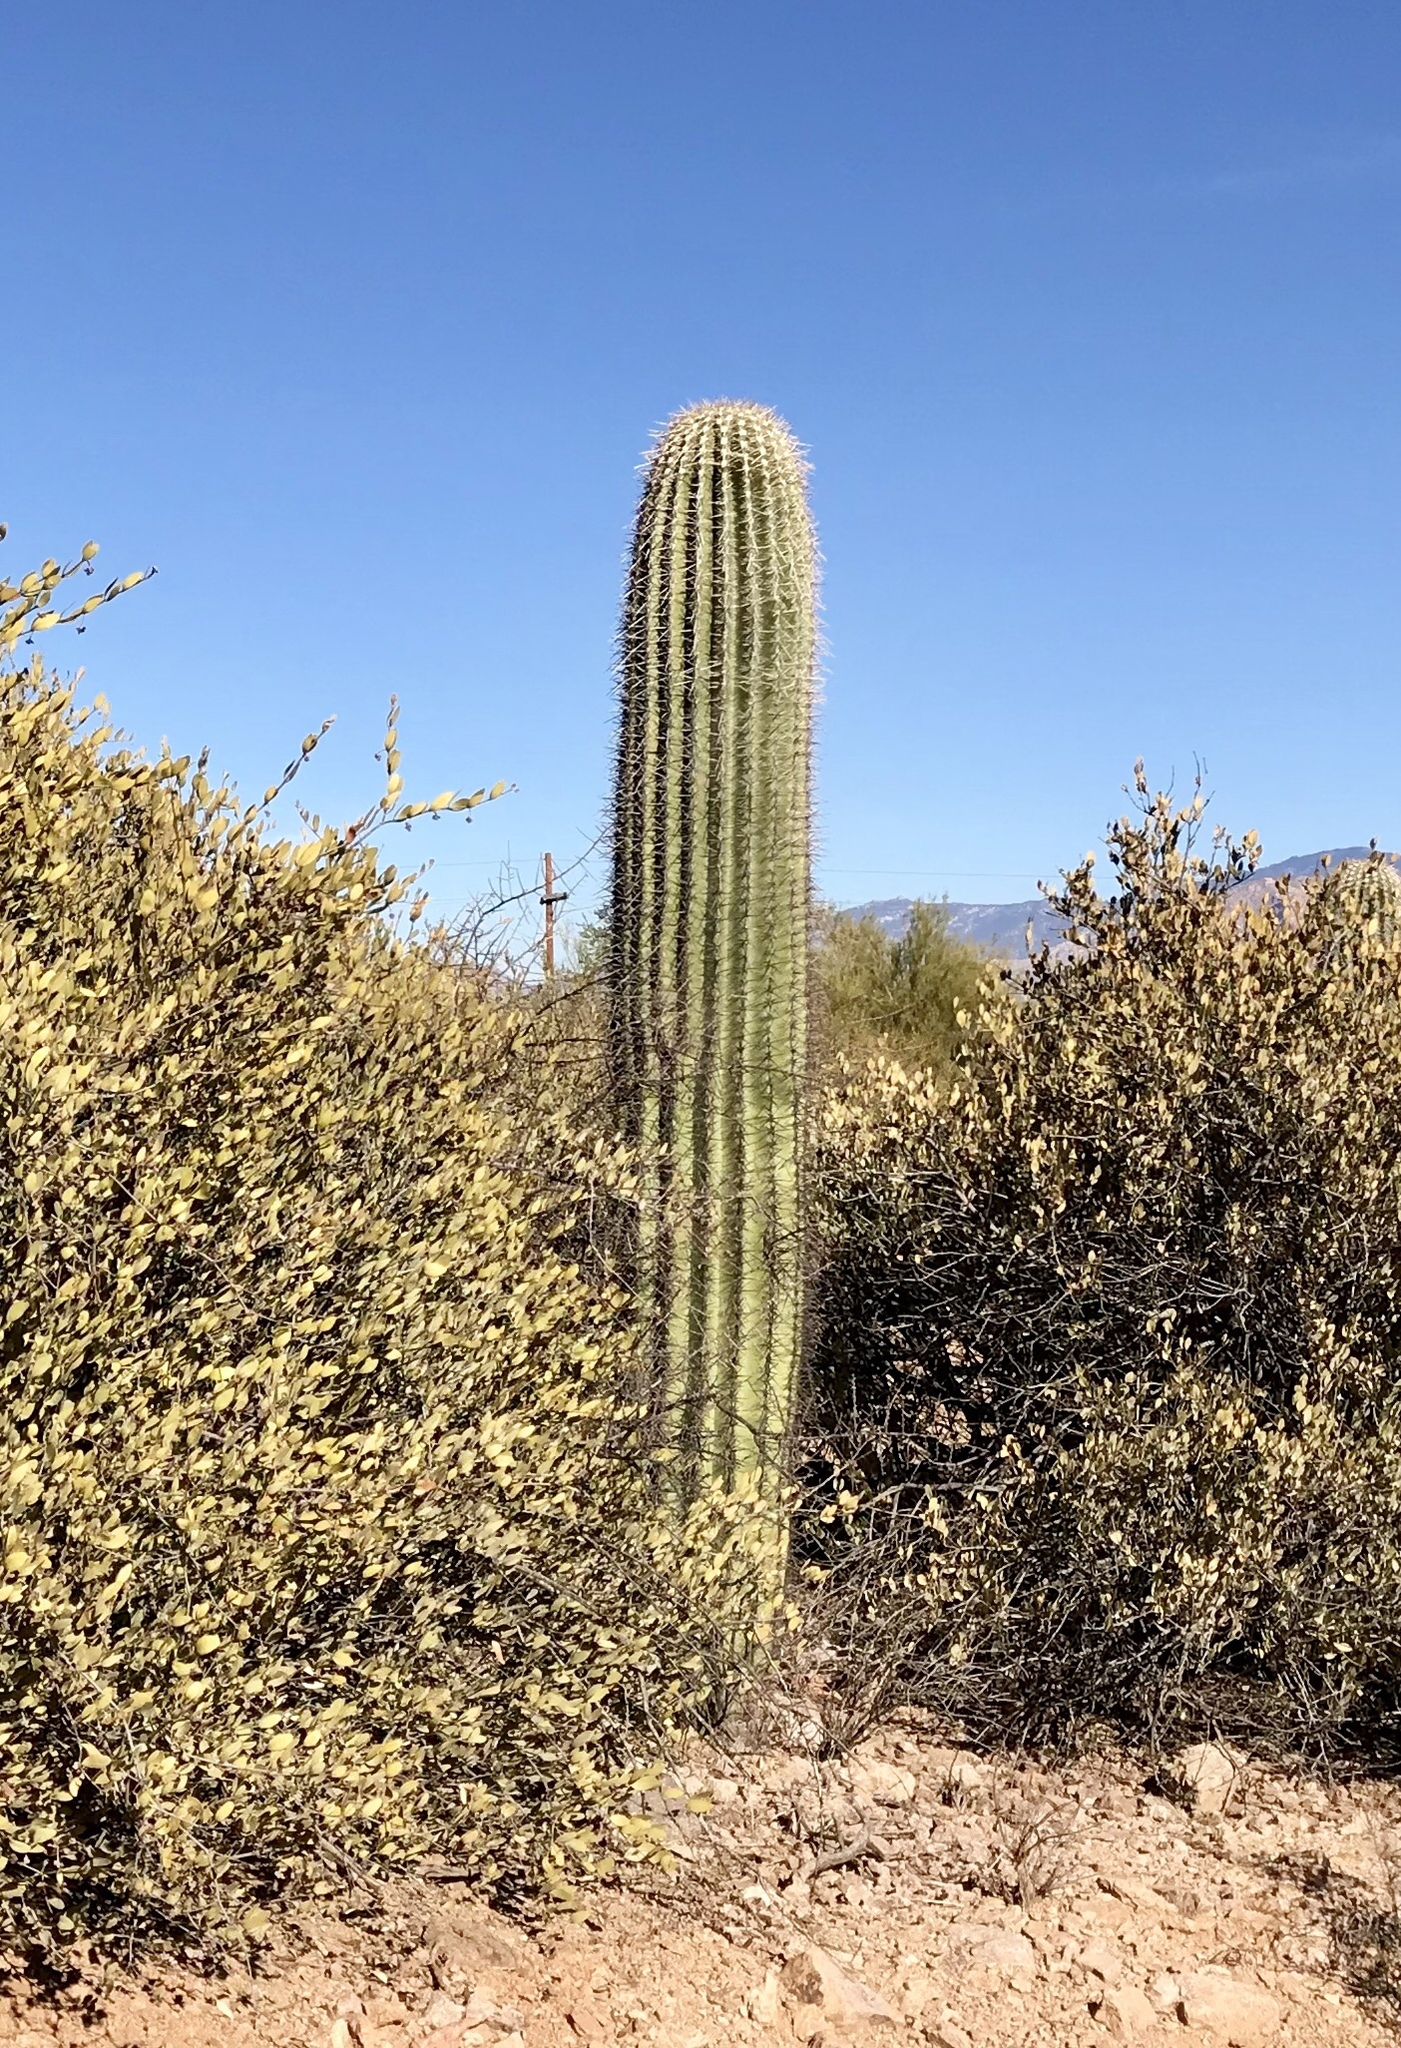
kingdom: Plantae
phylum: Tracheophyta
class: Magnoliopsida
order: Caryophyllales
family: Cactaceae
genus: Carnegiea
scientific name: Carnegiea gigantea
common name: Saguaro
